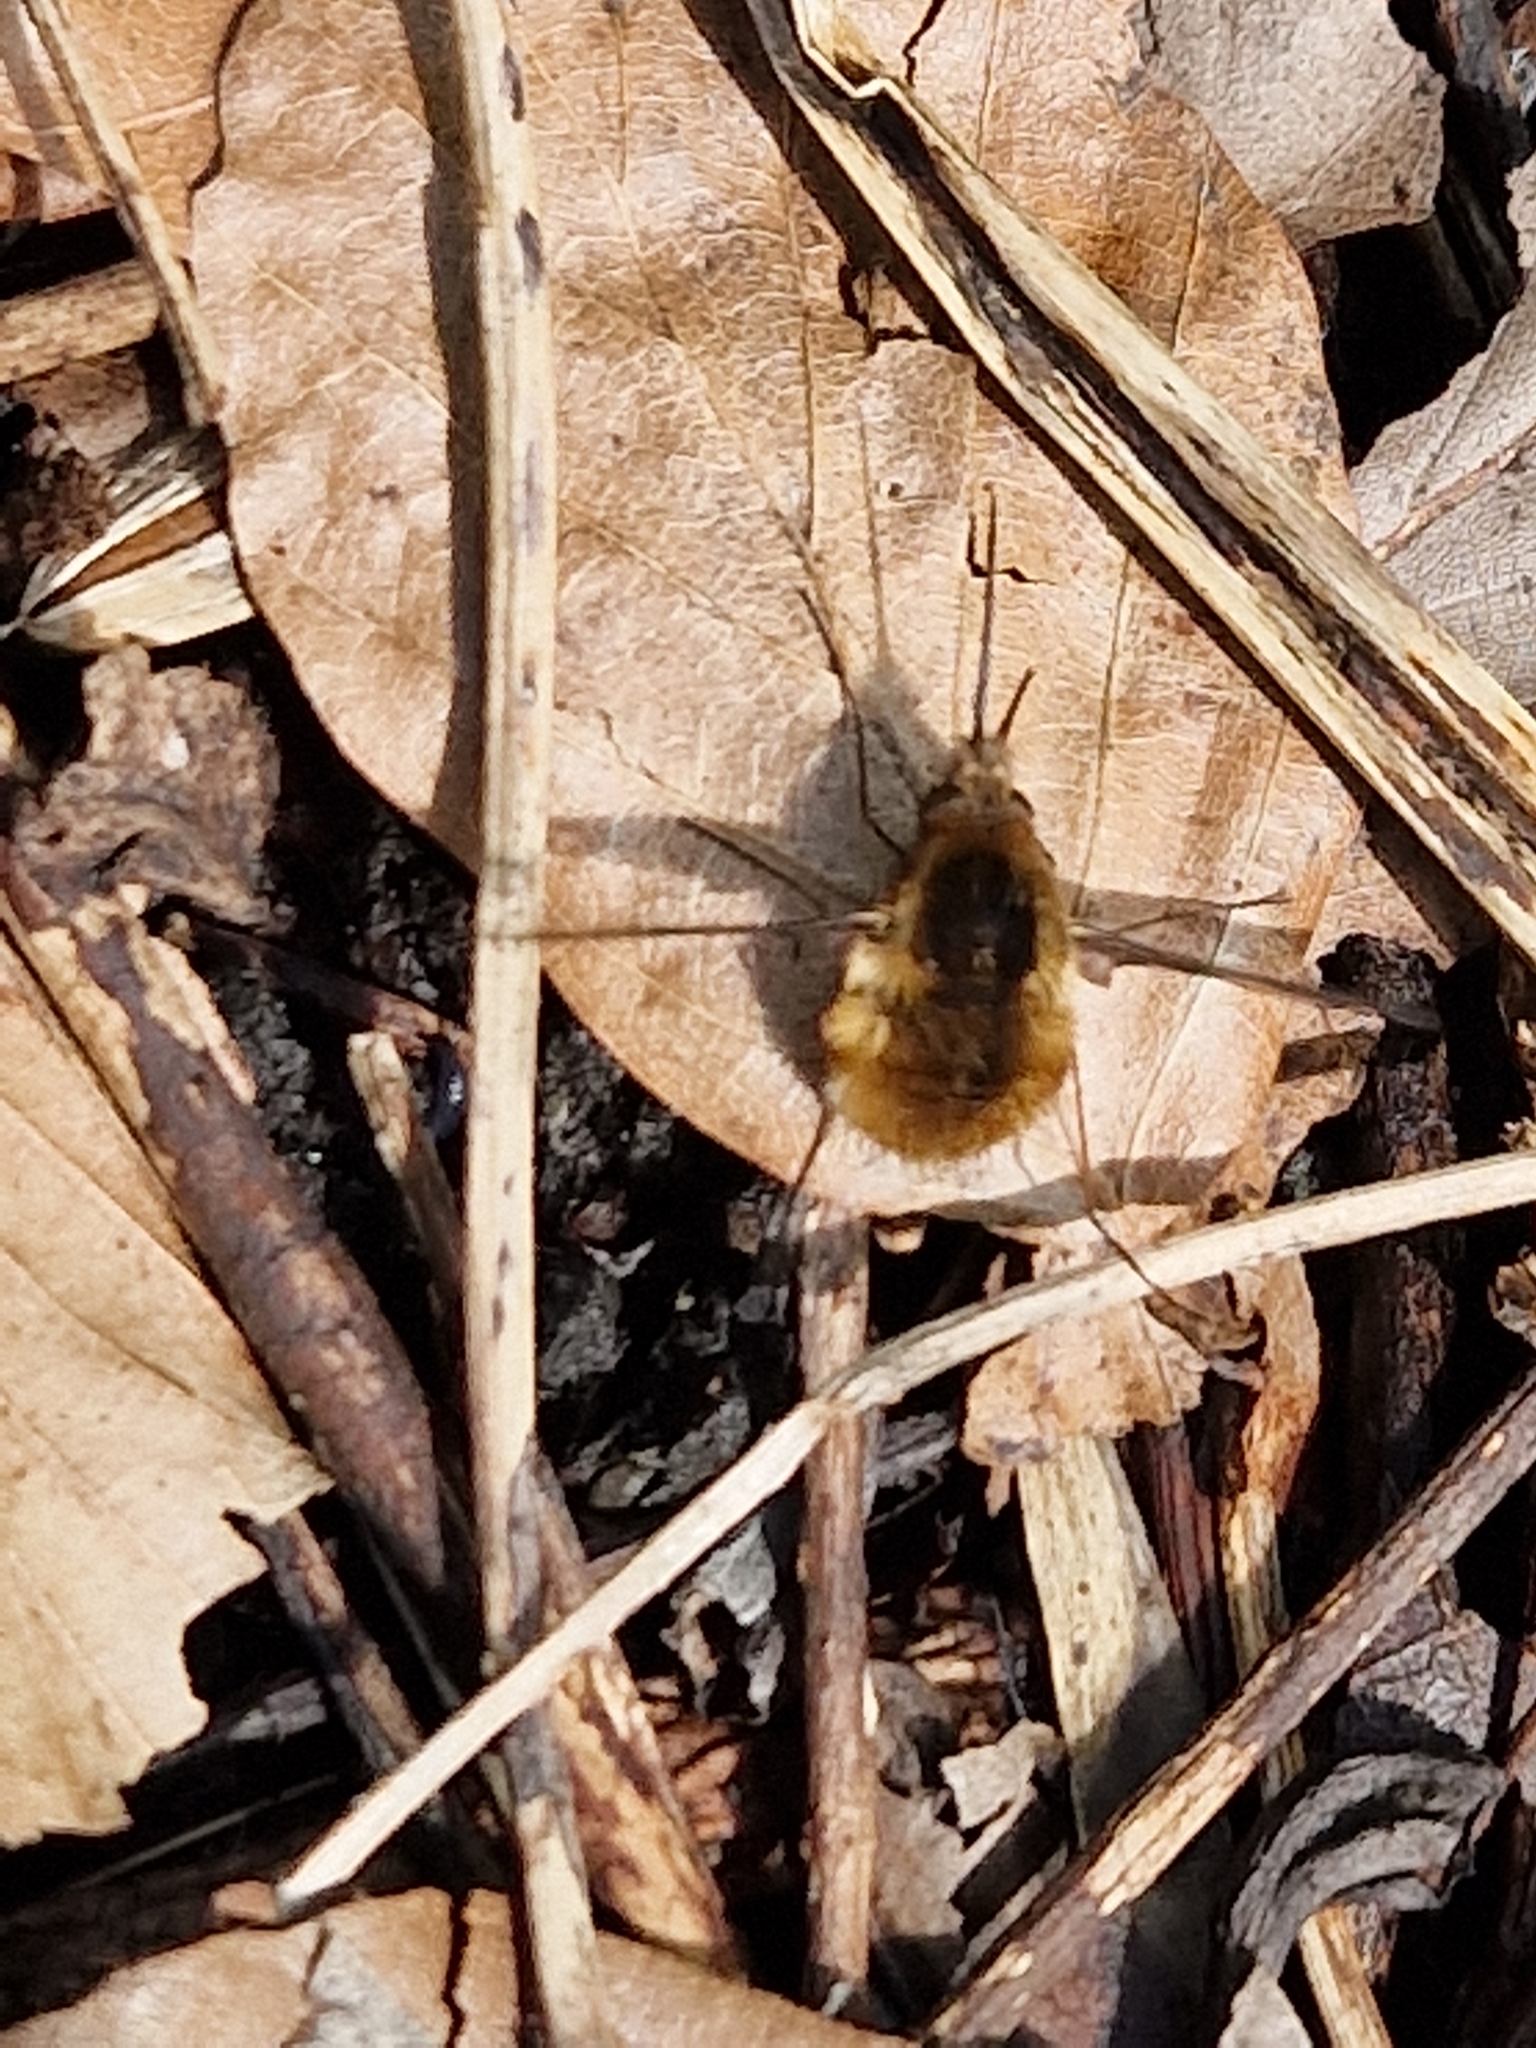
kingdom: Animalia
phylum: Arthropoda
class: Insecta
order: Diptera
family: Bombyliidae
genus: Bombylius
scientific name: Bombylius major
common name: Bee fly
